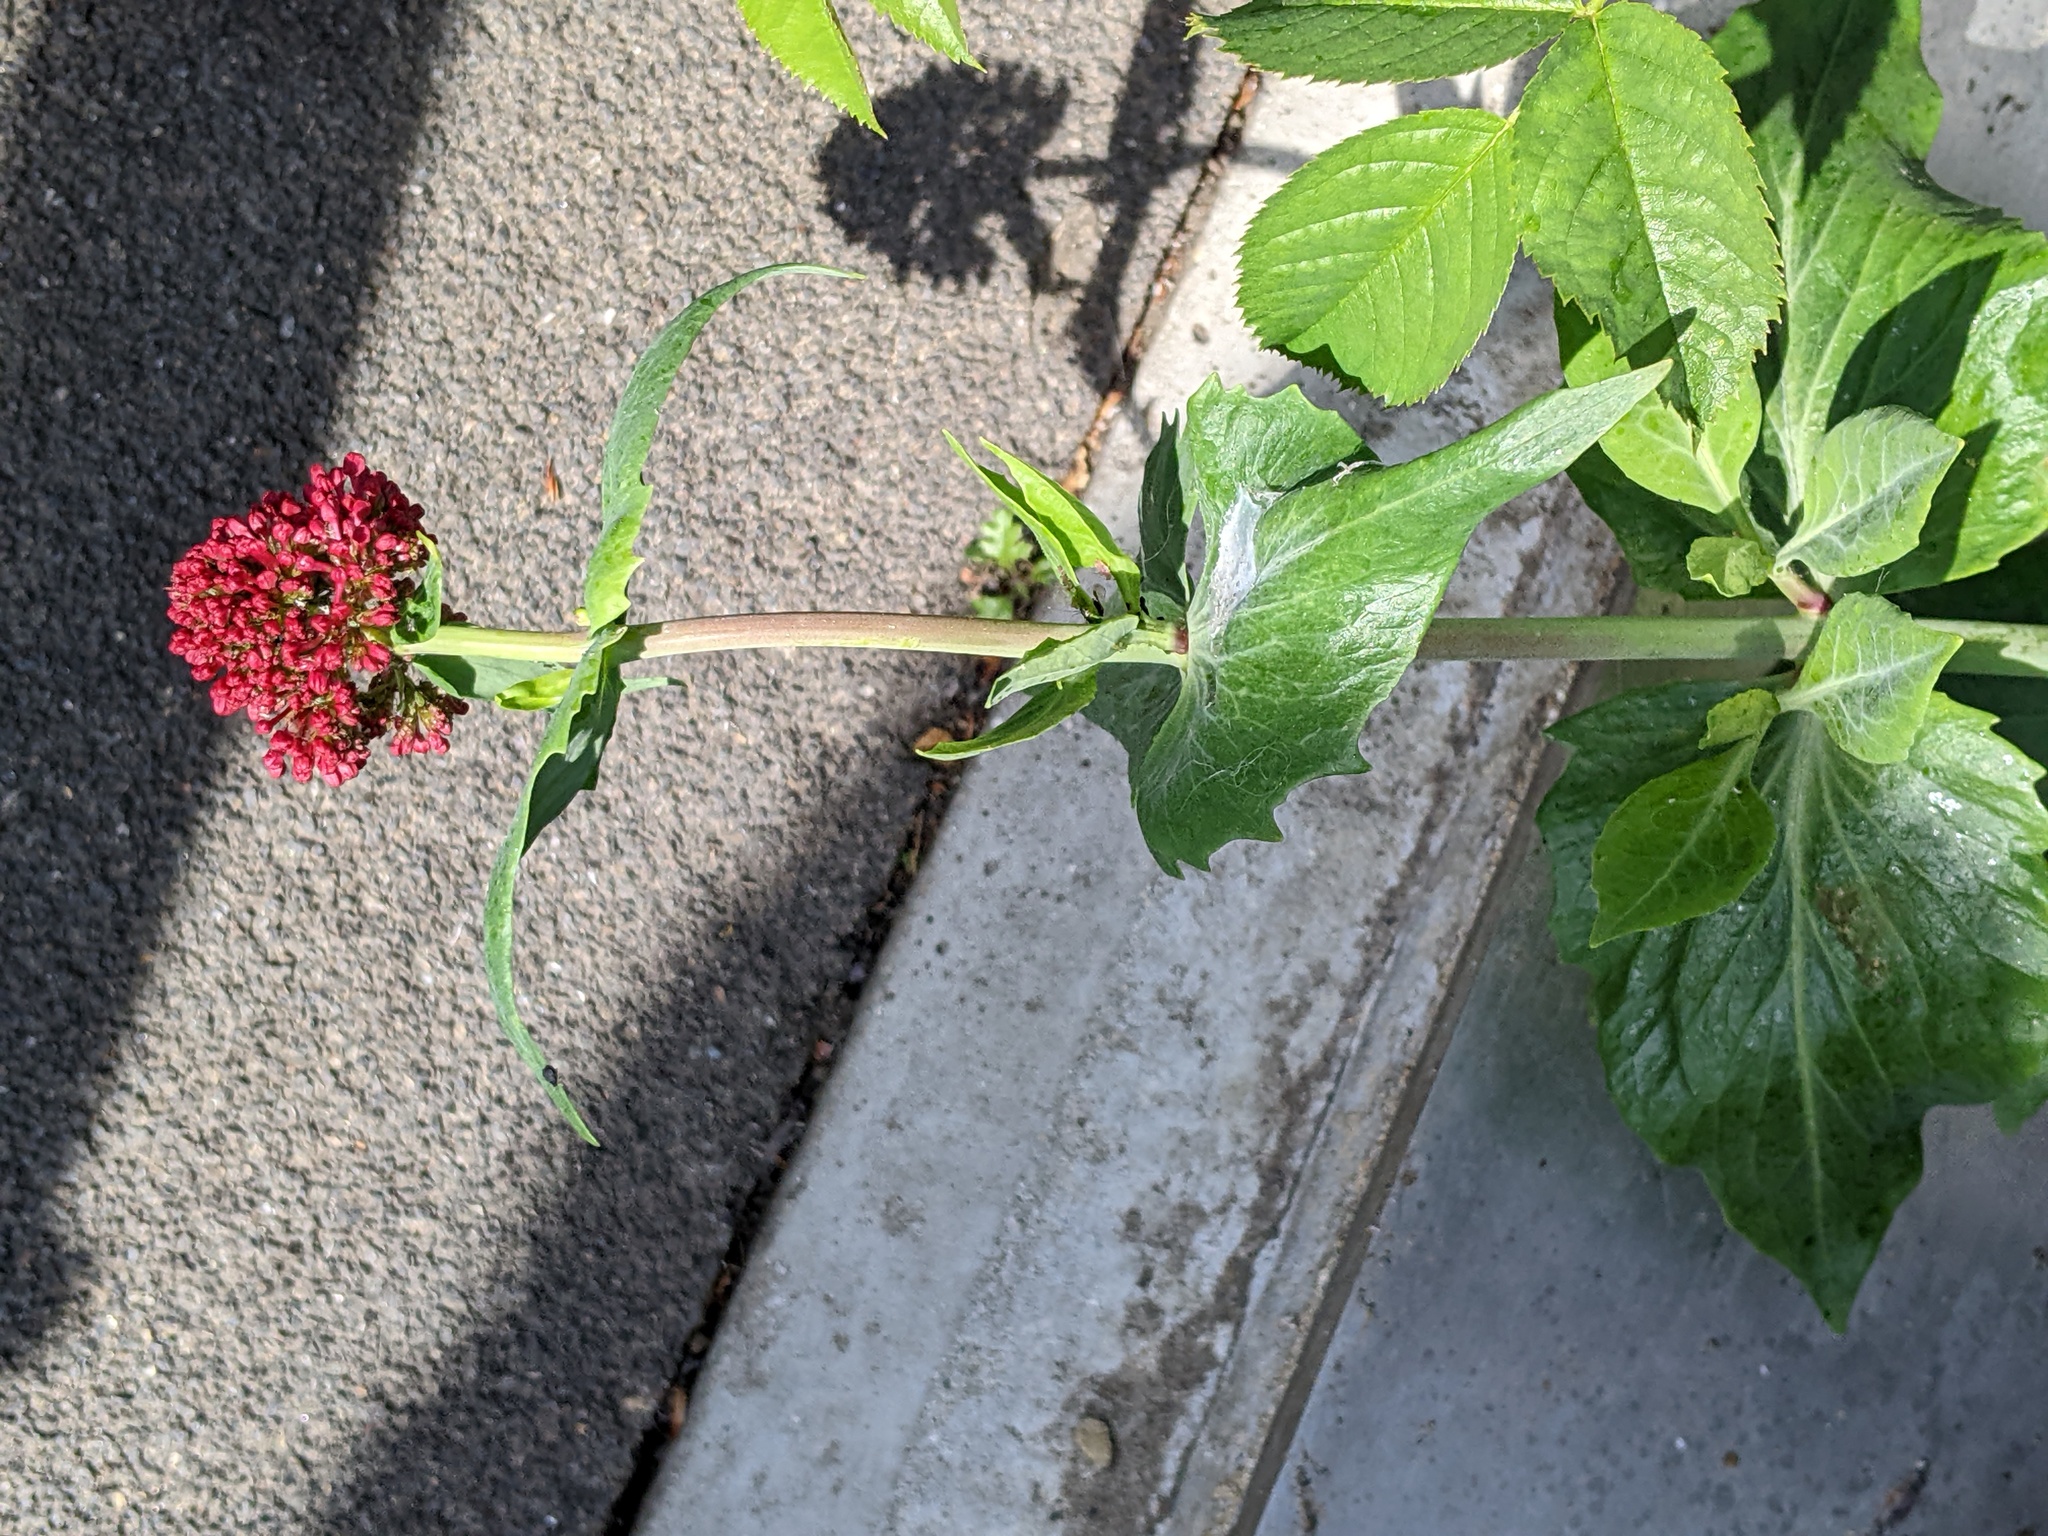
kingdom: Plantae
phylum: Tracheophyta
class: Magnoliopsida
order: Dipsacales
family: Caprifoliaceae
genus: Centranthus
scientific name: Centranthus ruber
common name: Red valerian
